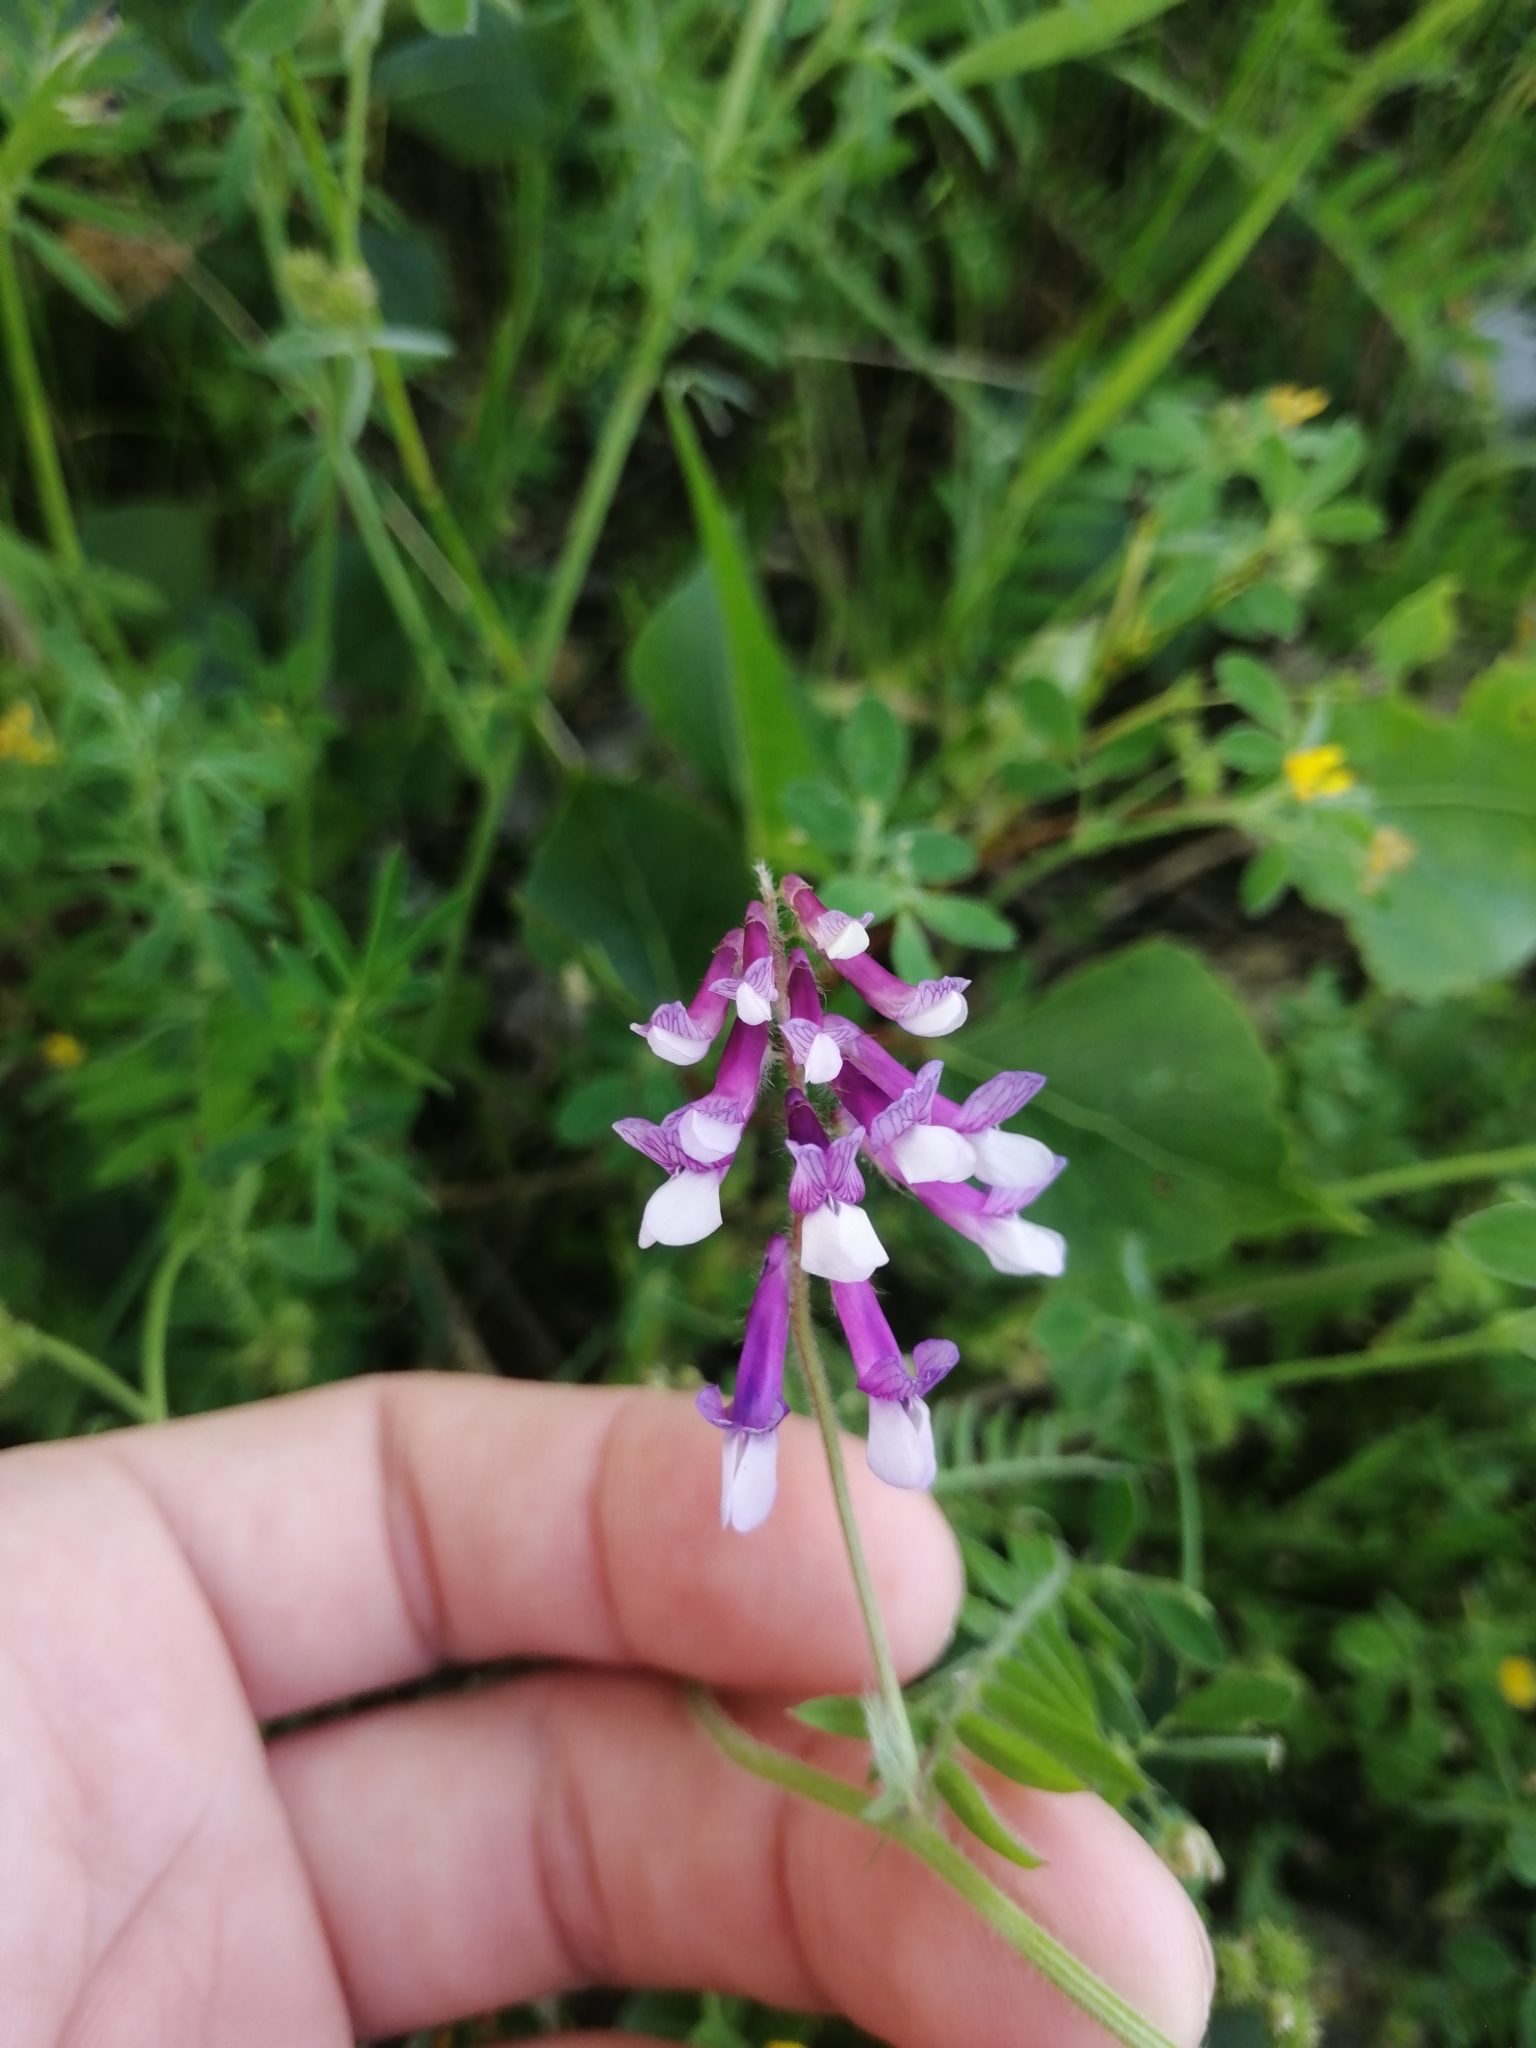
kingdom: Plantae
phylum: Tracheophyta
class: Magnoliopsida
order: Fabales
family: Fabaceae
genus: Vicia
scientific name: Vicia villosa
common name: Fodder vetch
